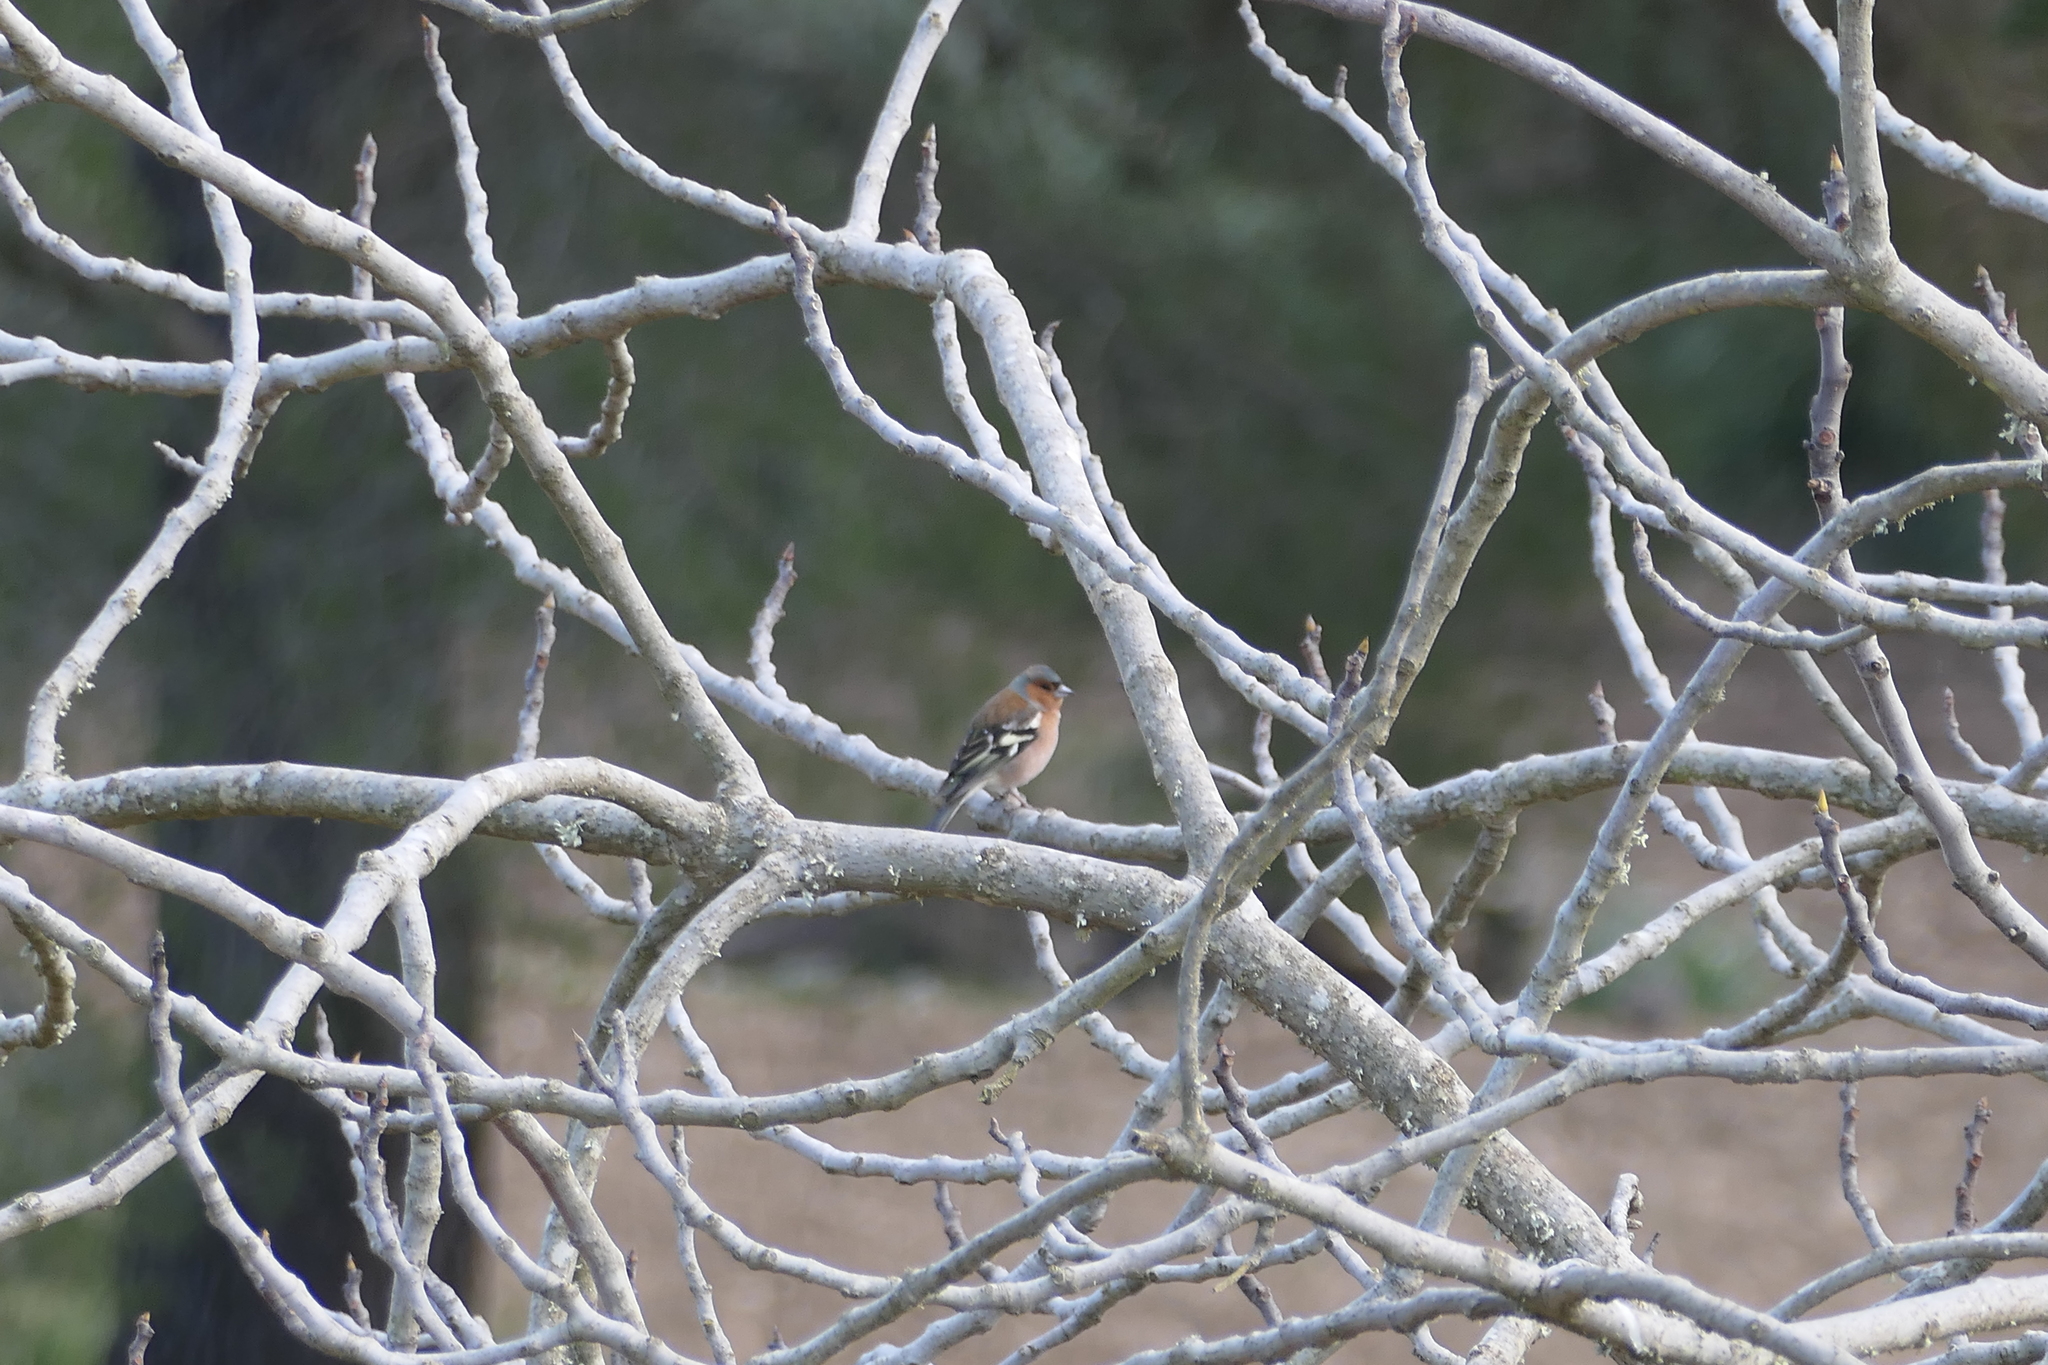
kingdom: Animalia
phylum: Chordata
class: Aves
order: Passeriformes
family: Fringillidae
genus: Fringilla
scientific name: Fringilla coelebs
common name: Common chaffinch
